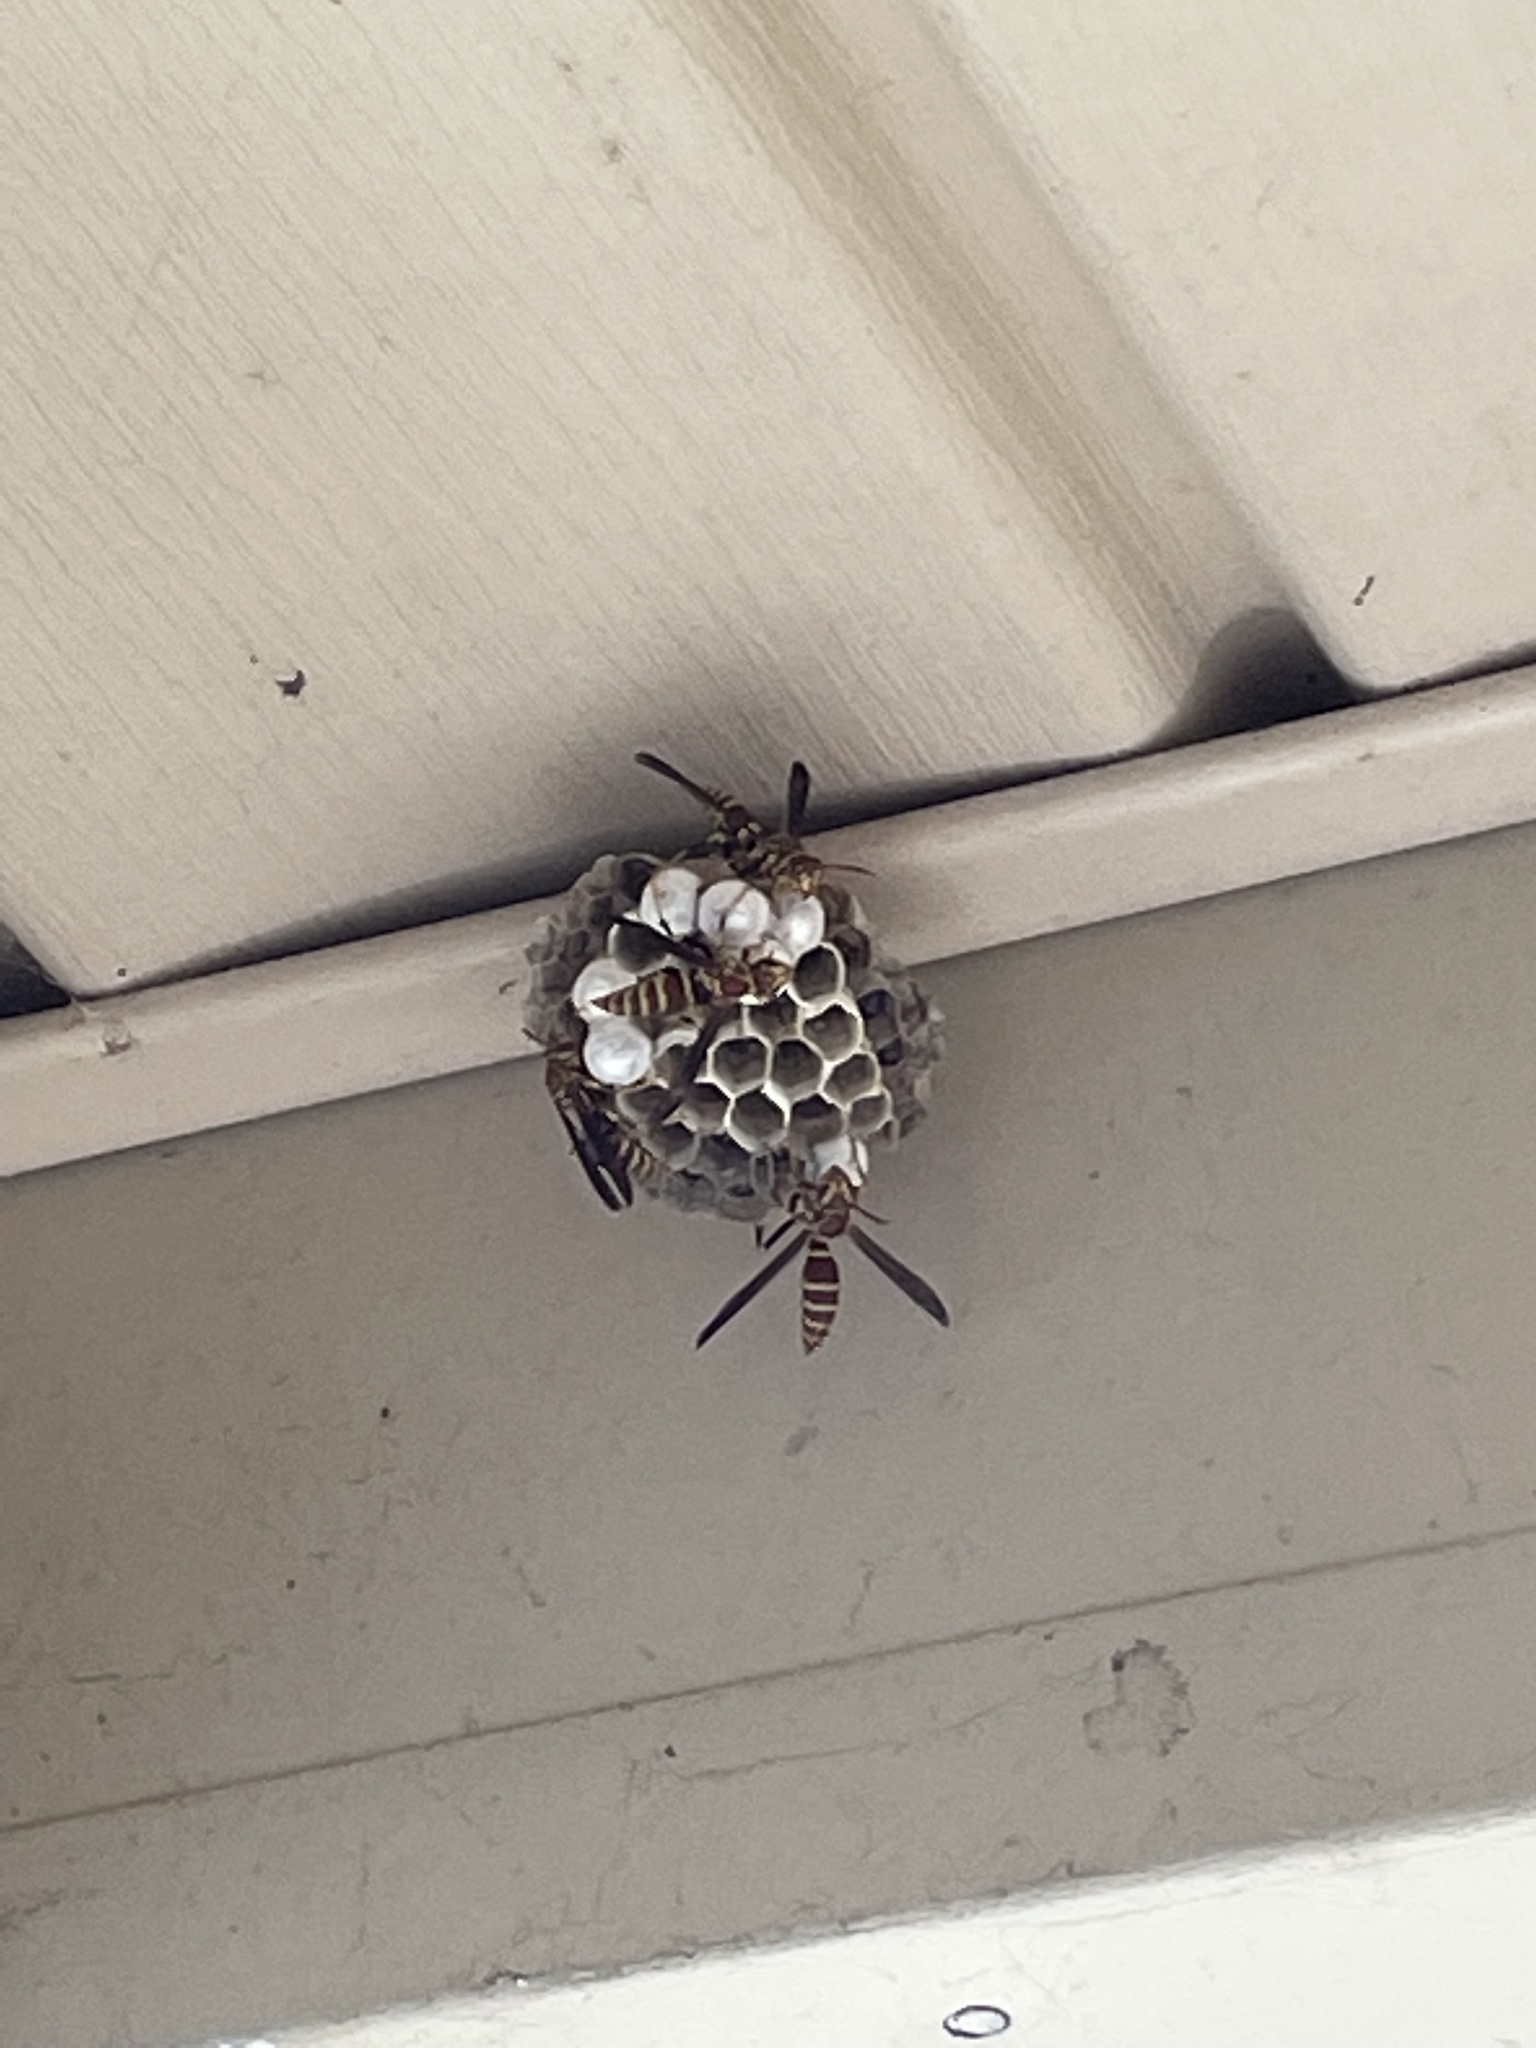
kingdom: Animalia
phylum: Arthropoda
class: Insecta
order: Hymenoptera
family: Eumenidae
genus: Polistes
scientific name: Polistes exclamans
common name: Paper wasp
